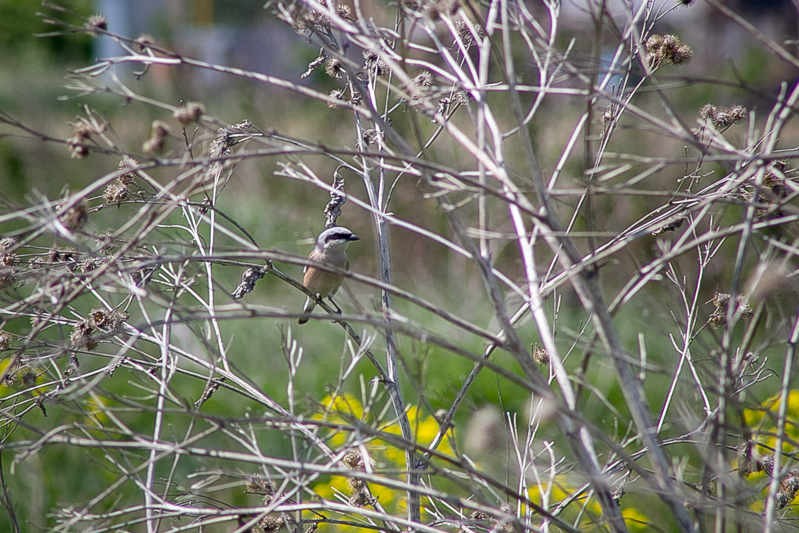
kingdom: Animalia
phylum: Chordata
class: Aves
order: Passeriformes
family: Laniidae
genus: Lanius
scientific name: Lanius collurio
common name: Red-backed shrike
